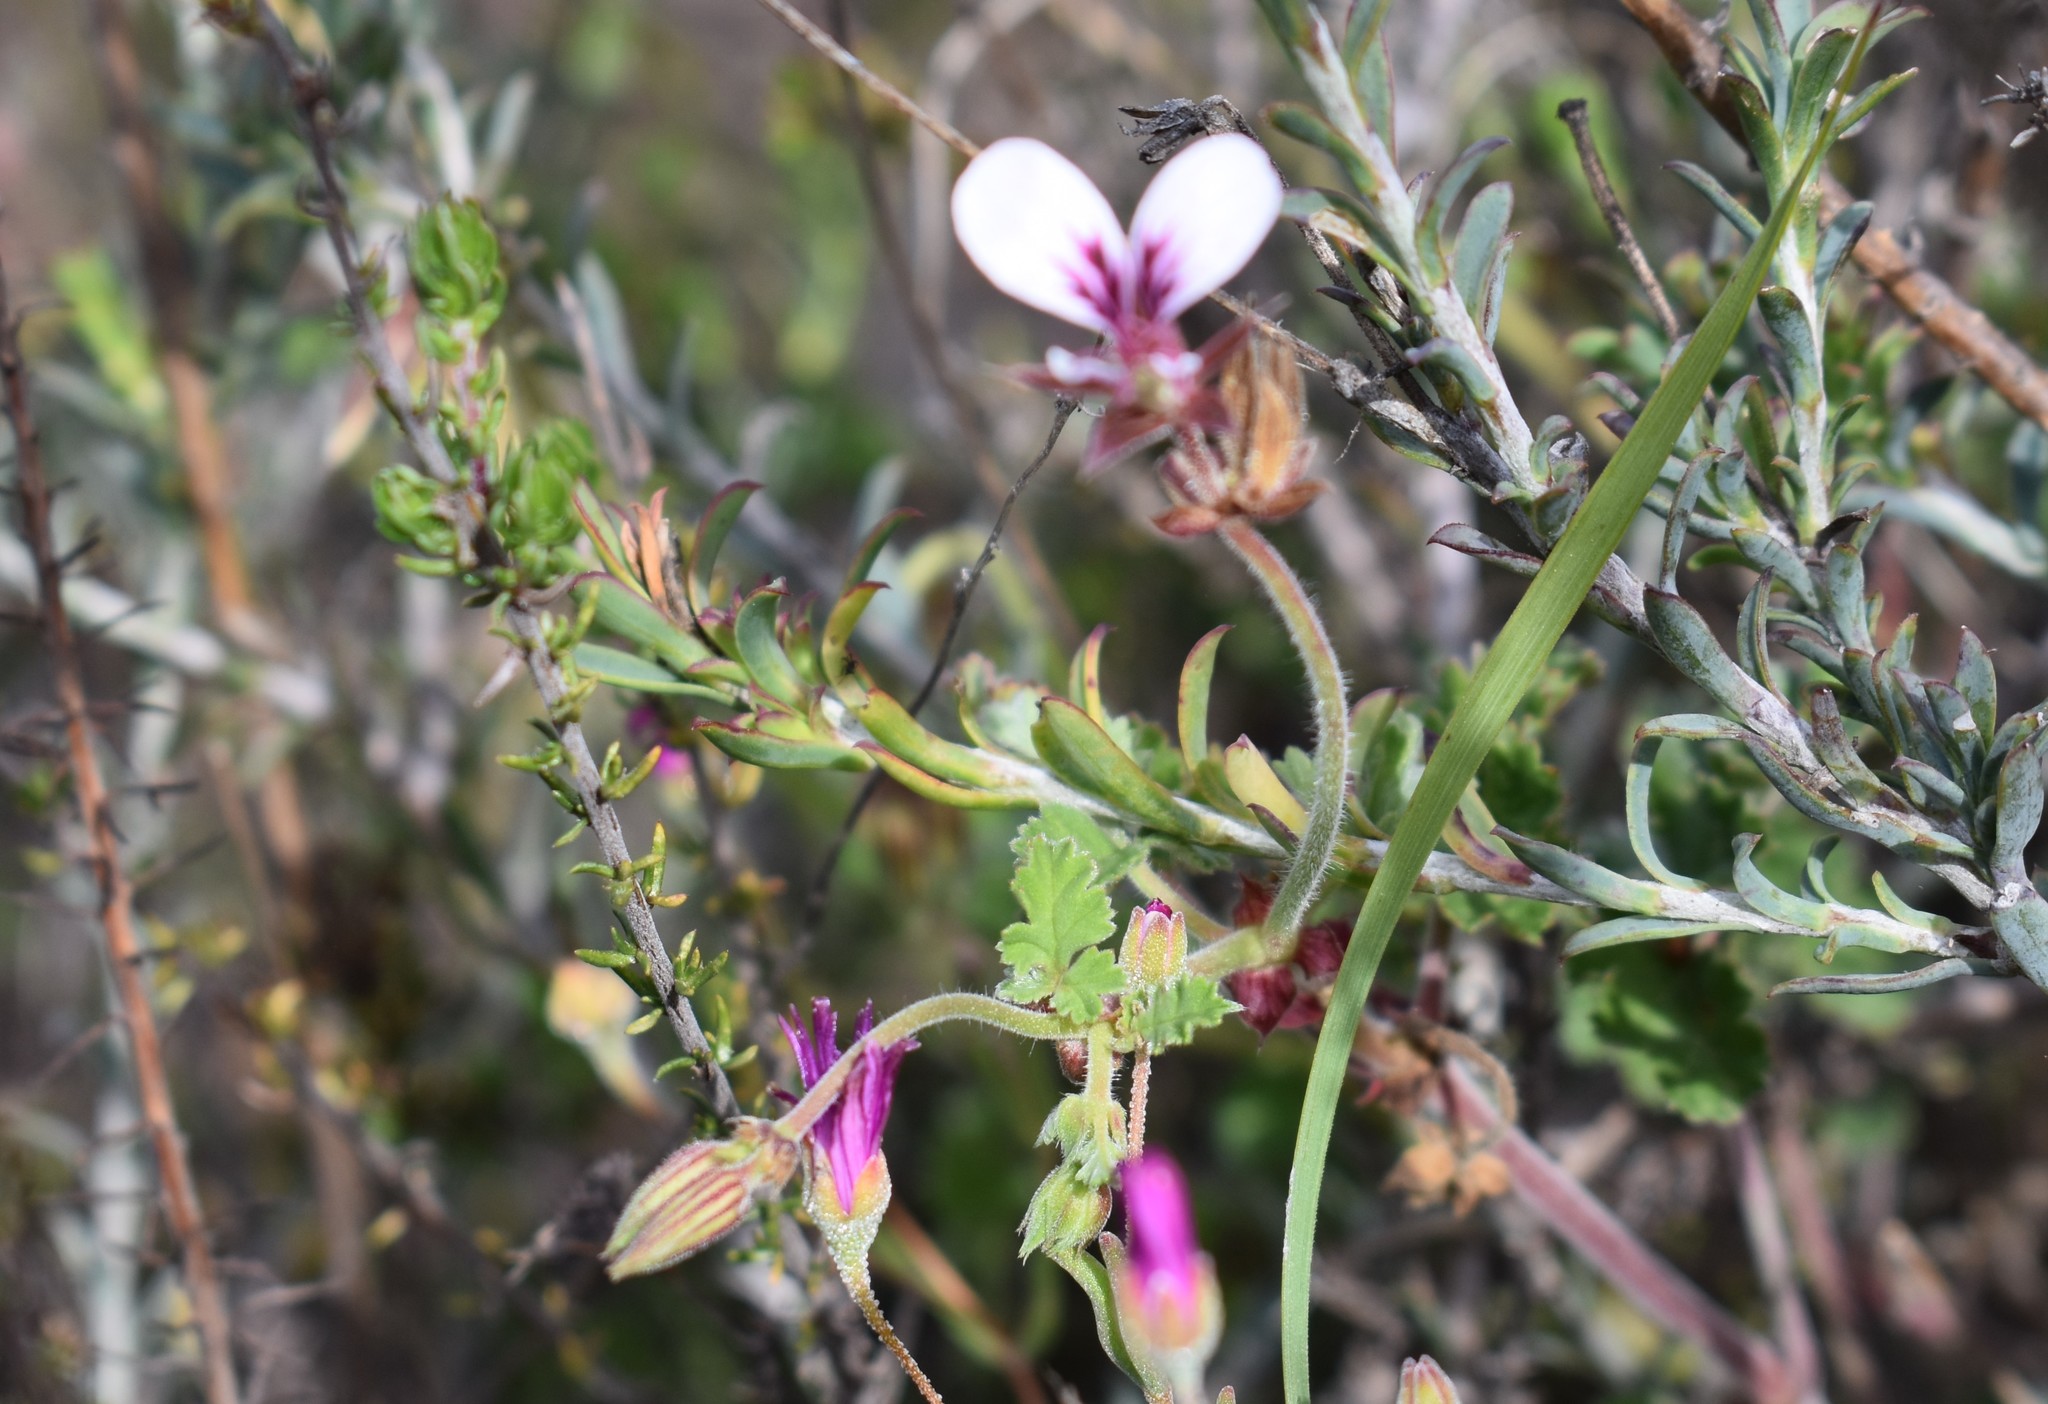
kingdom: Plantae
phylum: Tracheophyta
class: Magnoliopsida
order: Geraniales
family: Geraniaceae
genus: Pelargonium
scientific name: Pelargonium candicans
